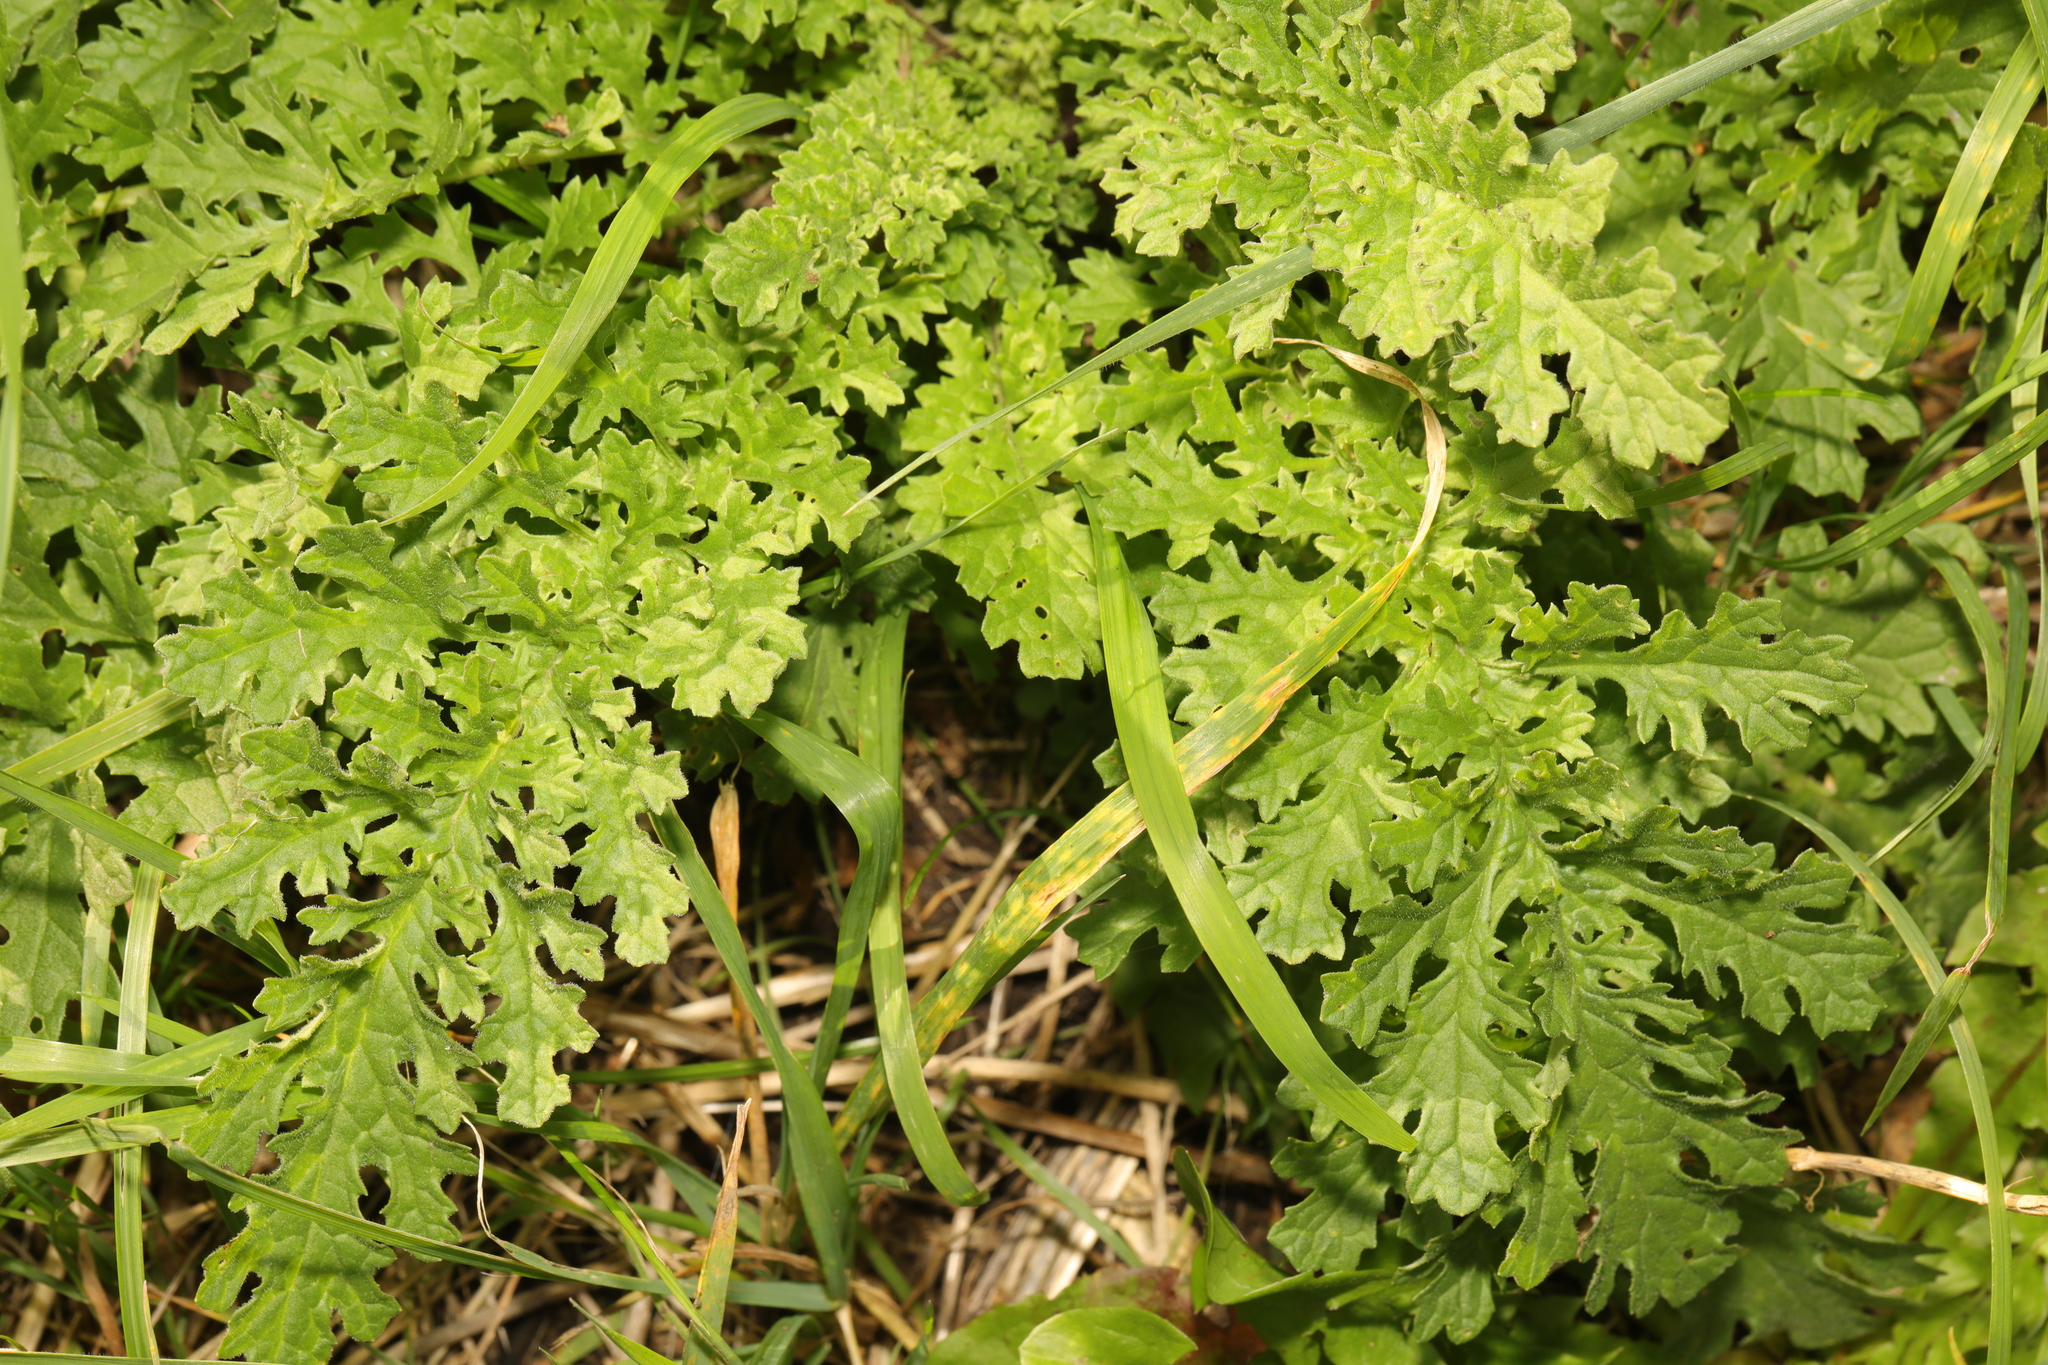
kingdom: Plantae
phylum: Tracheophyta
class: Magnoliopsida
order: Asterales
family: Asteraceae
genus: Jacobaea
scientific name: Jacobaea vulgaris
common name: Stinking willie
